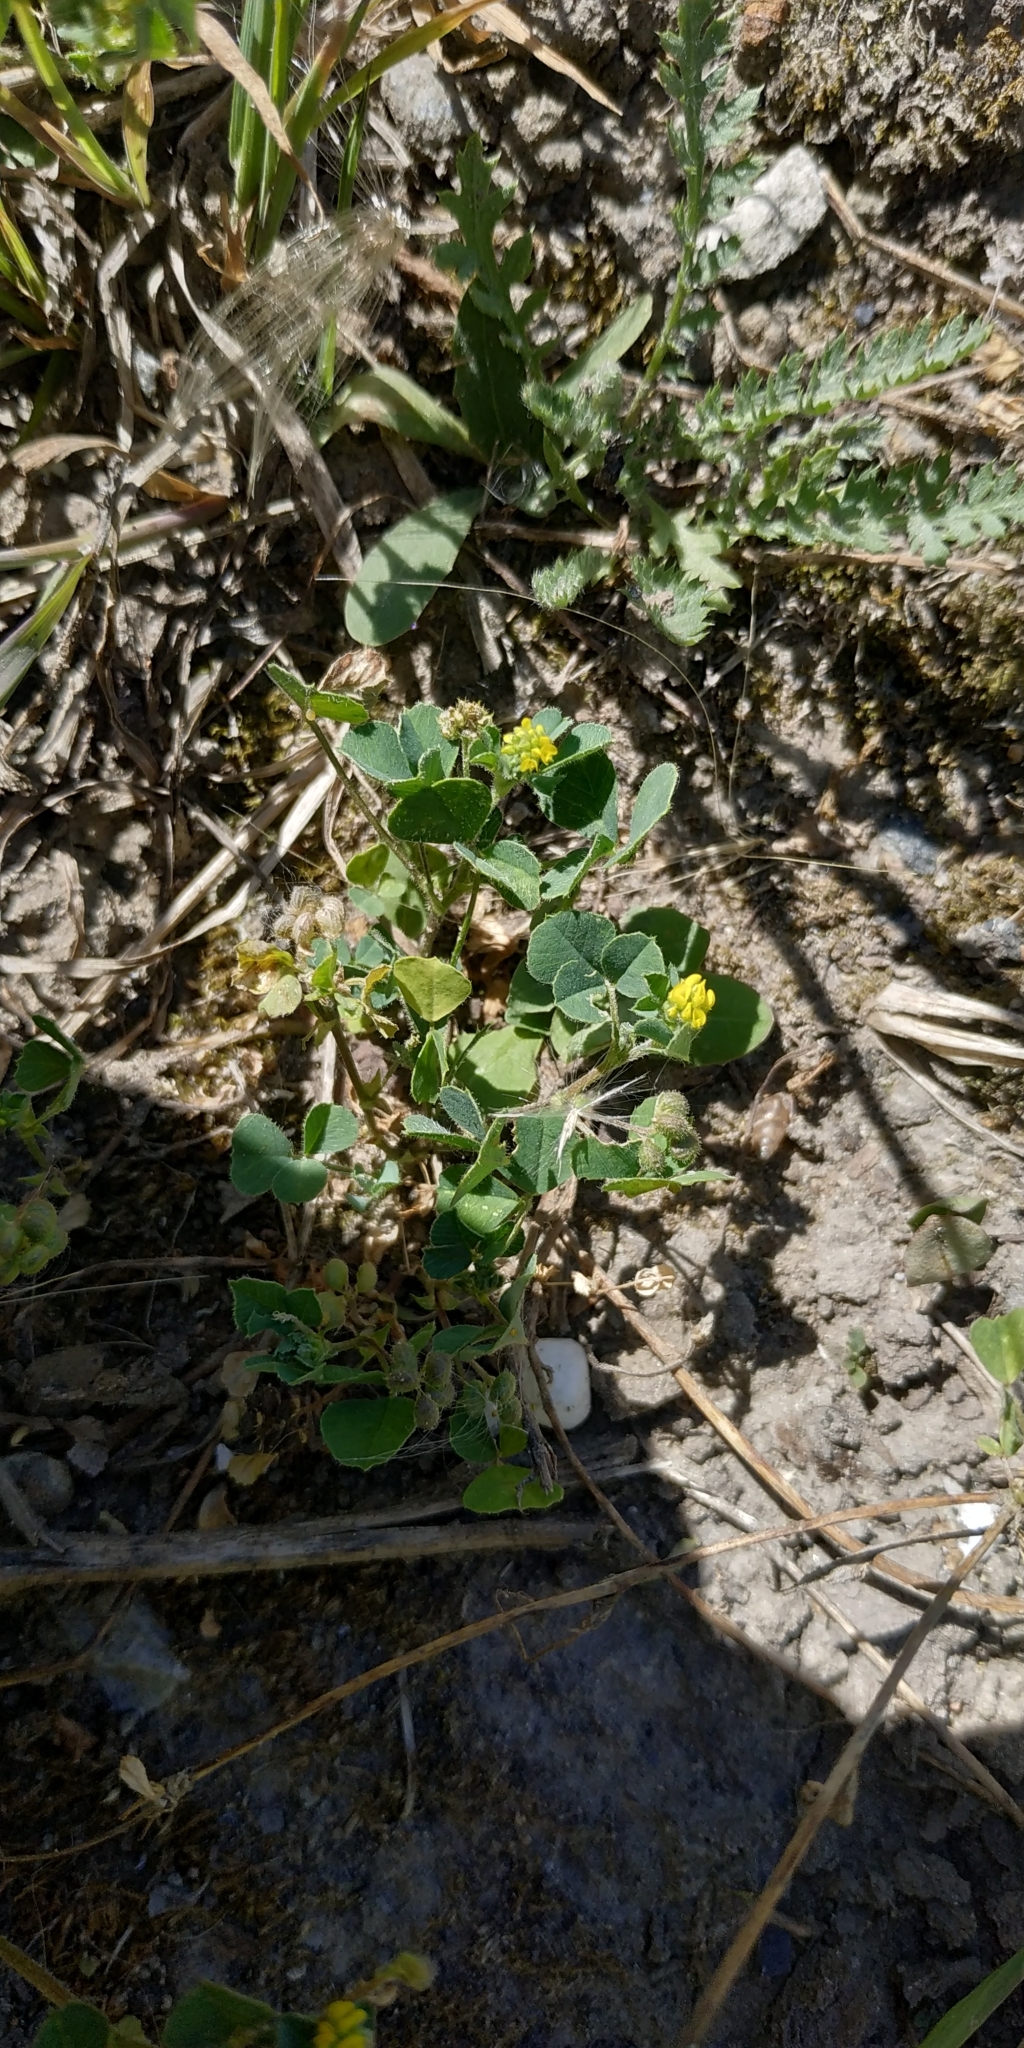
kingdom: Plantae
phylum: Tracheophyta
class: Magnoliopsida
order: Fabales
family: Fabaceae
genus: Medicago
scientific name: Medicago lupulina
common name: Black medick
